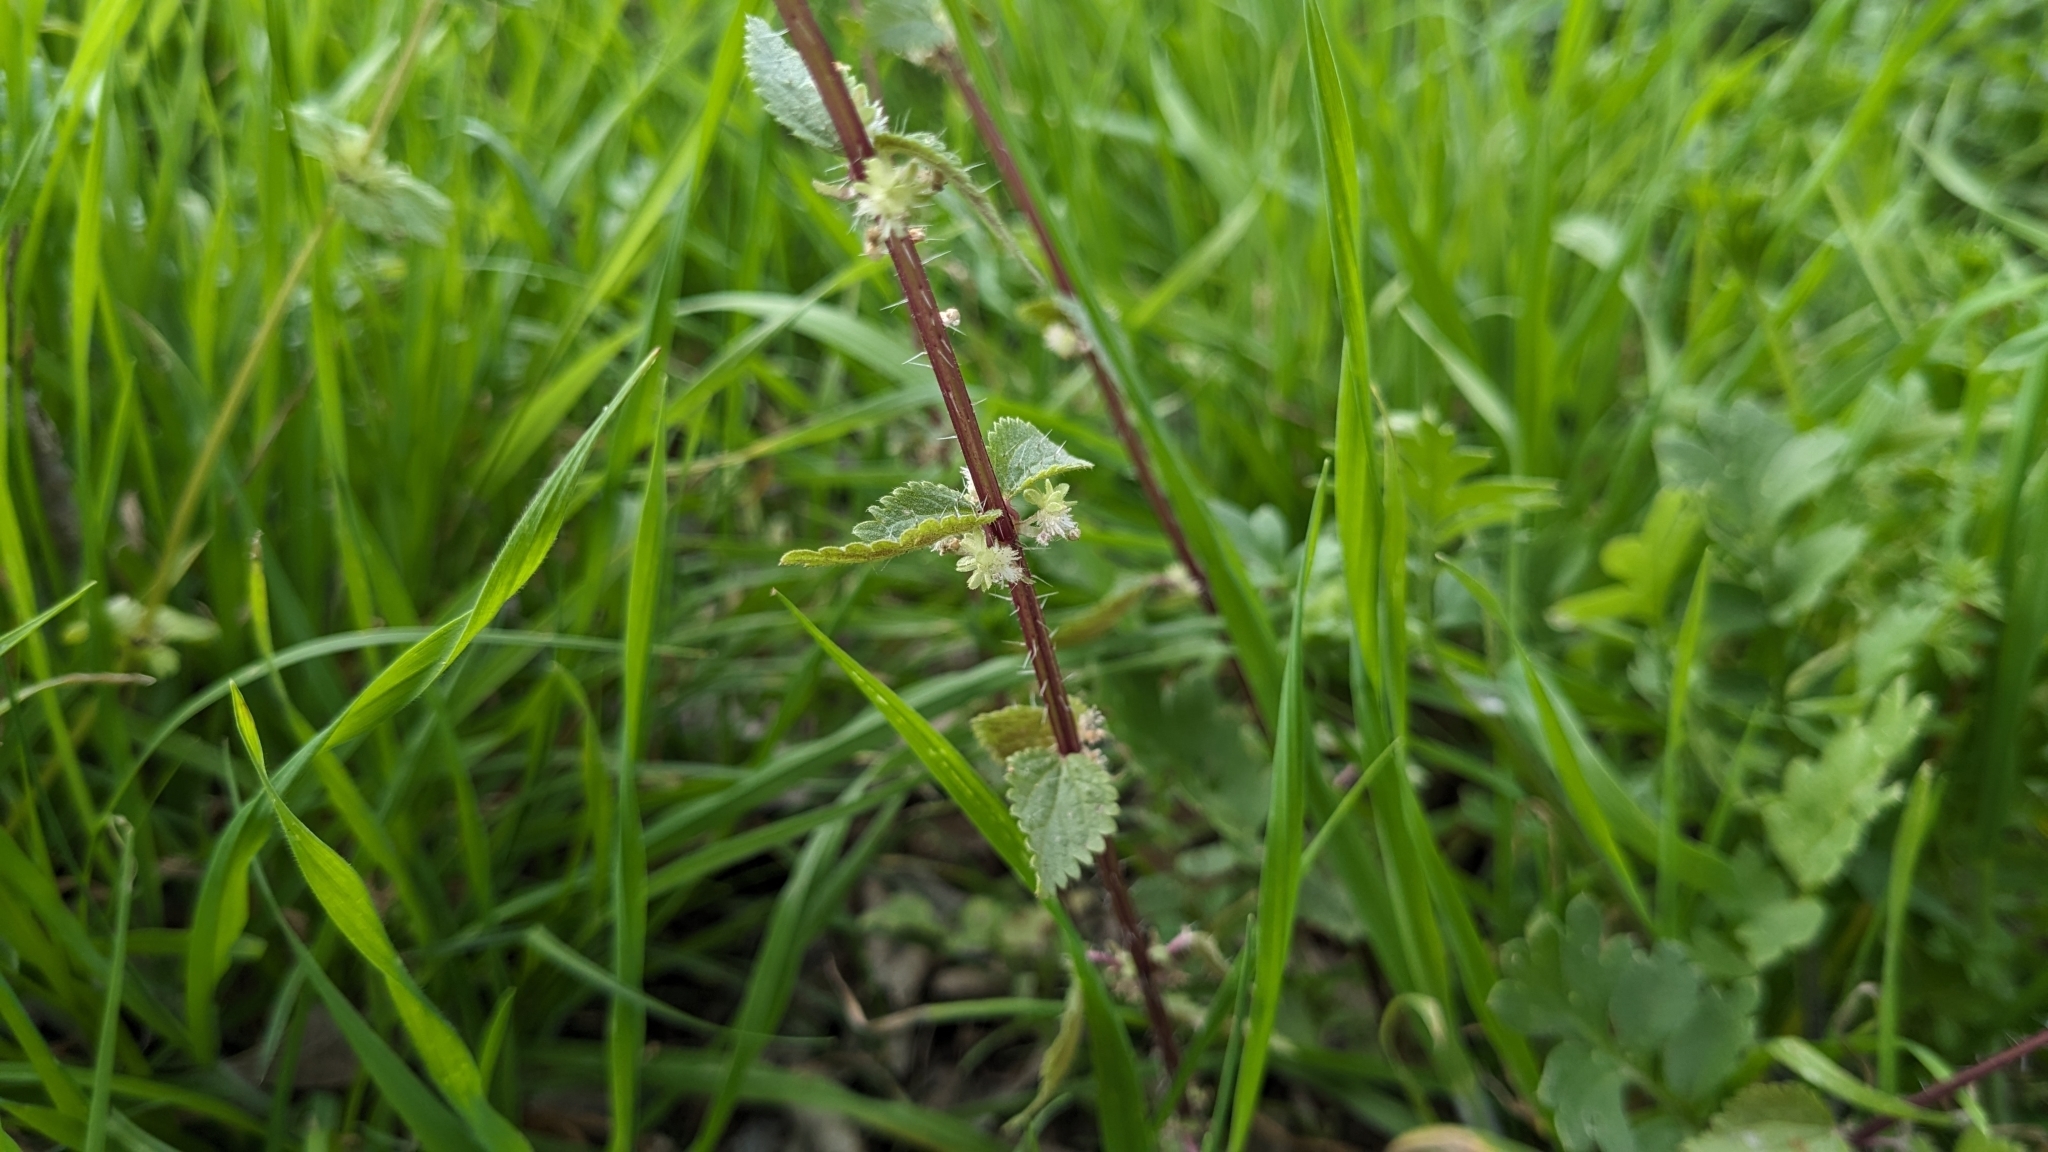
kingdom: Plantae
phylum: Tracheophyta
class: Magnoliopsida
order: Rosales
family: Urticaceae
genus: Urtica
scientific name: Urtica chamaedryoides
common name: Heart-leaf nettle
